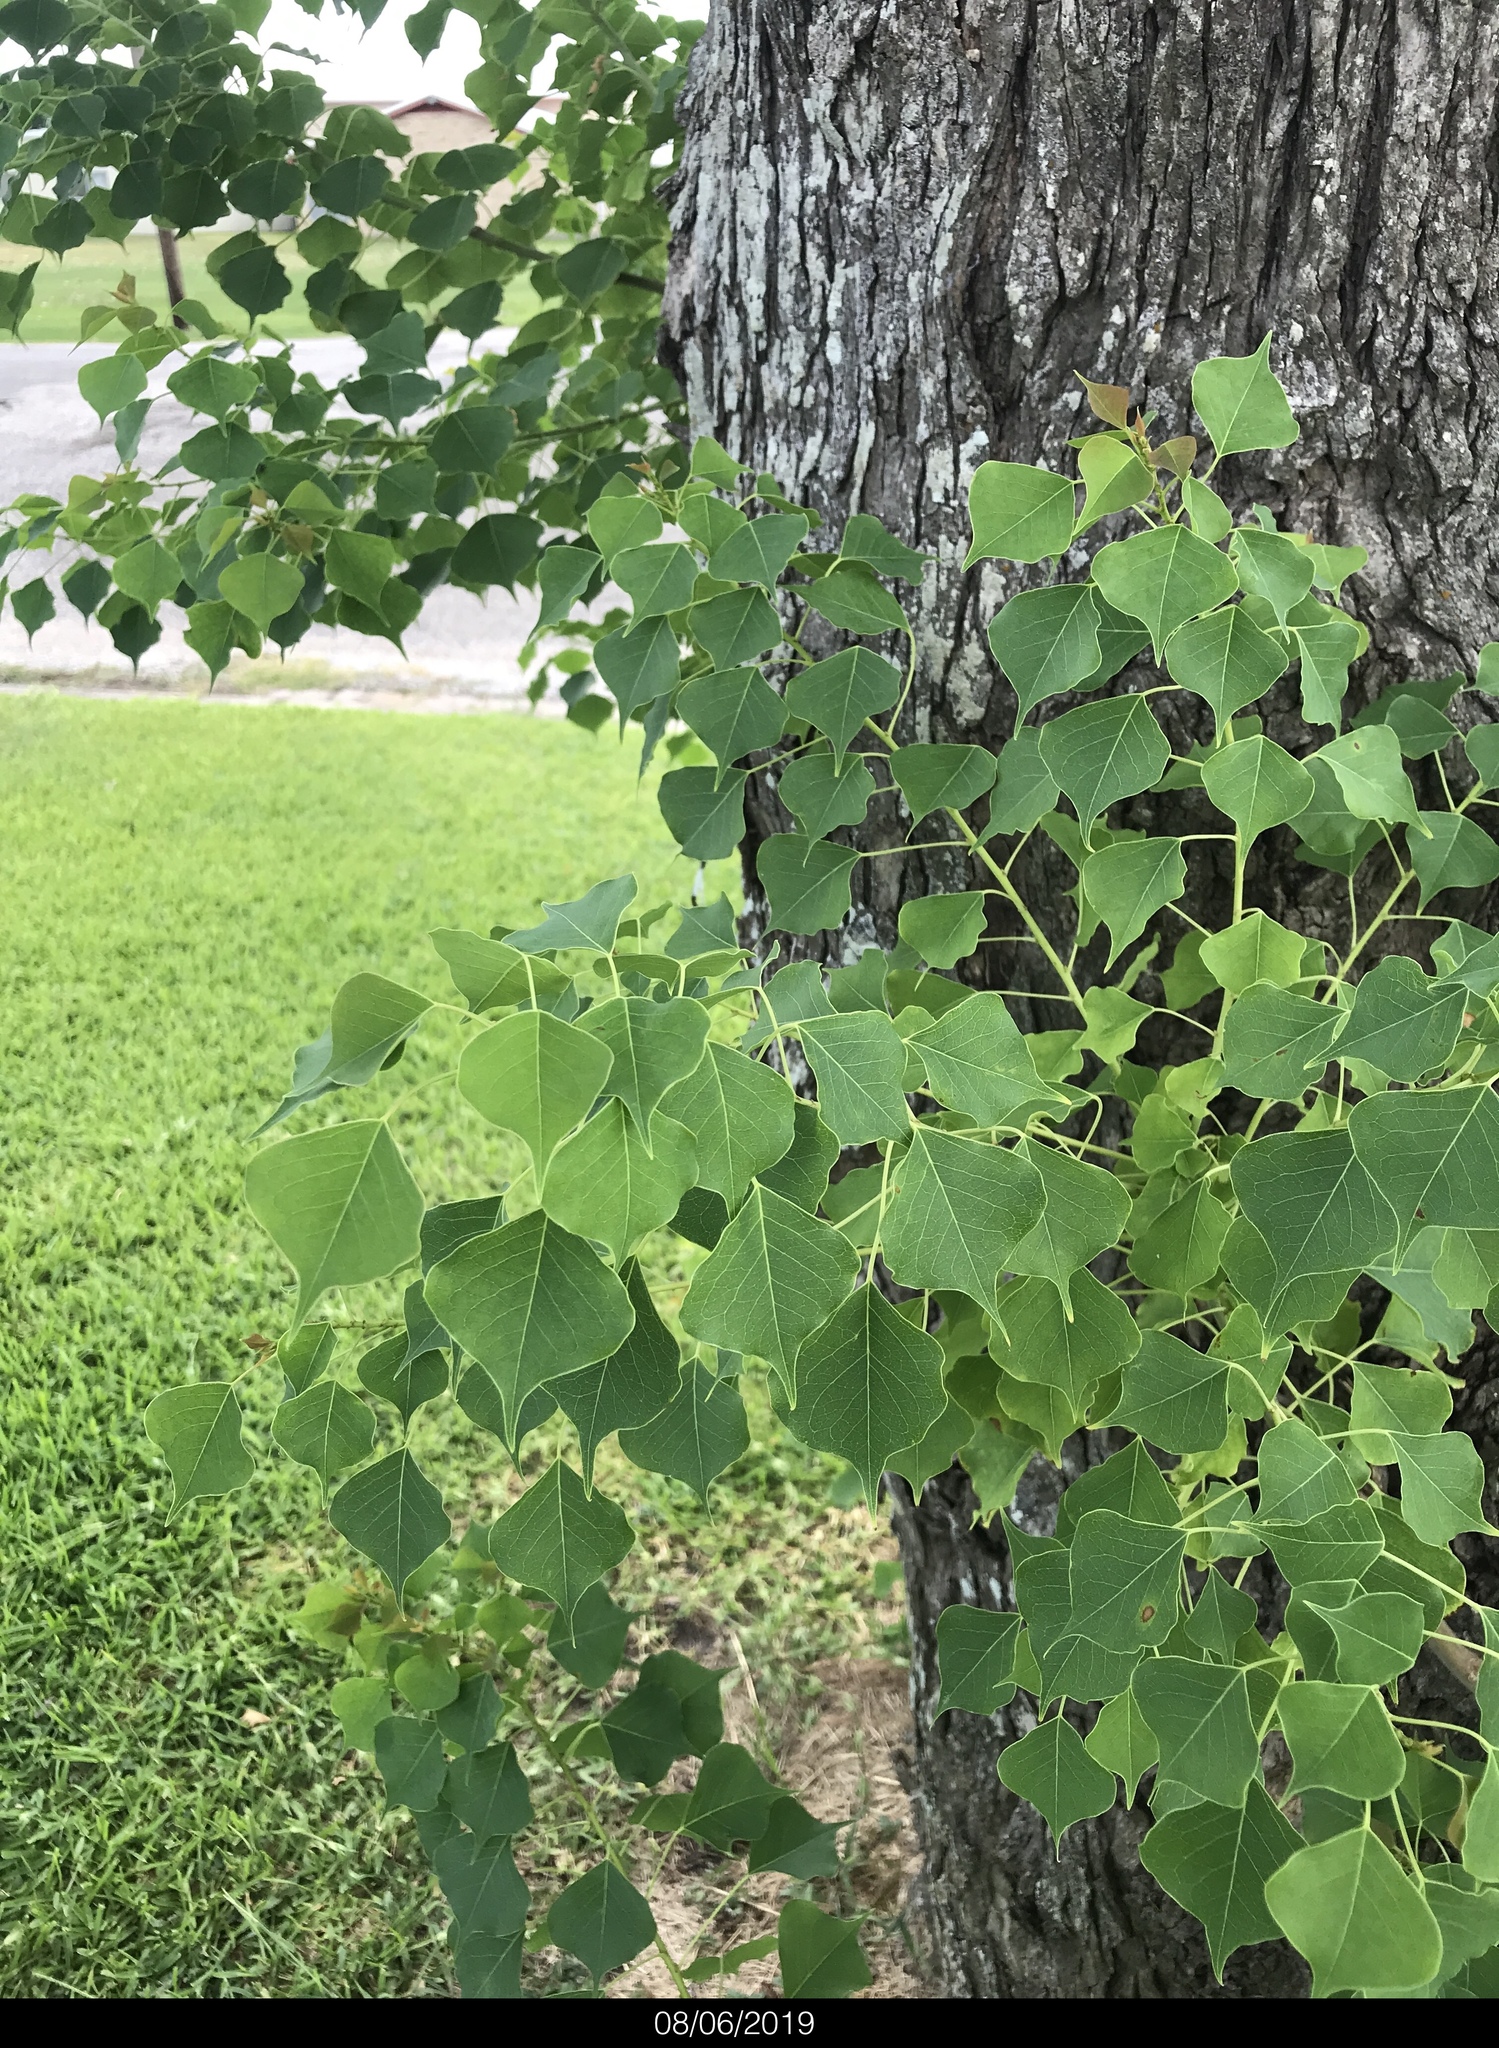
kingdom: Plantae
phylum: Tracheophyta
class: Magnoliopsida
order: Malpighiales
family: Euphorbiaceae
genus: Triadica
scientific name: Triadica sebifera
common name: Chinese tallow
